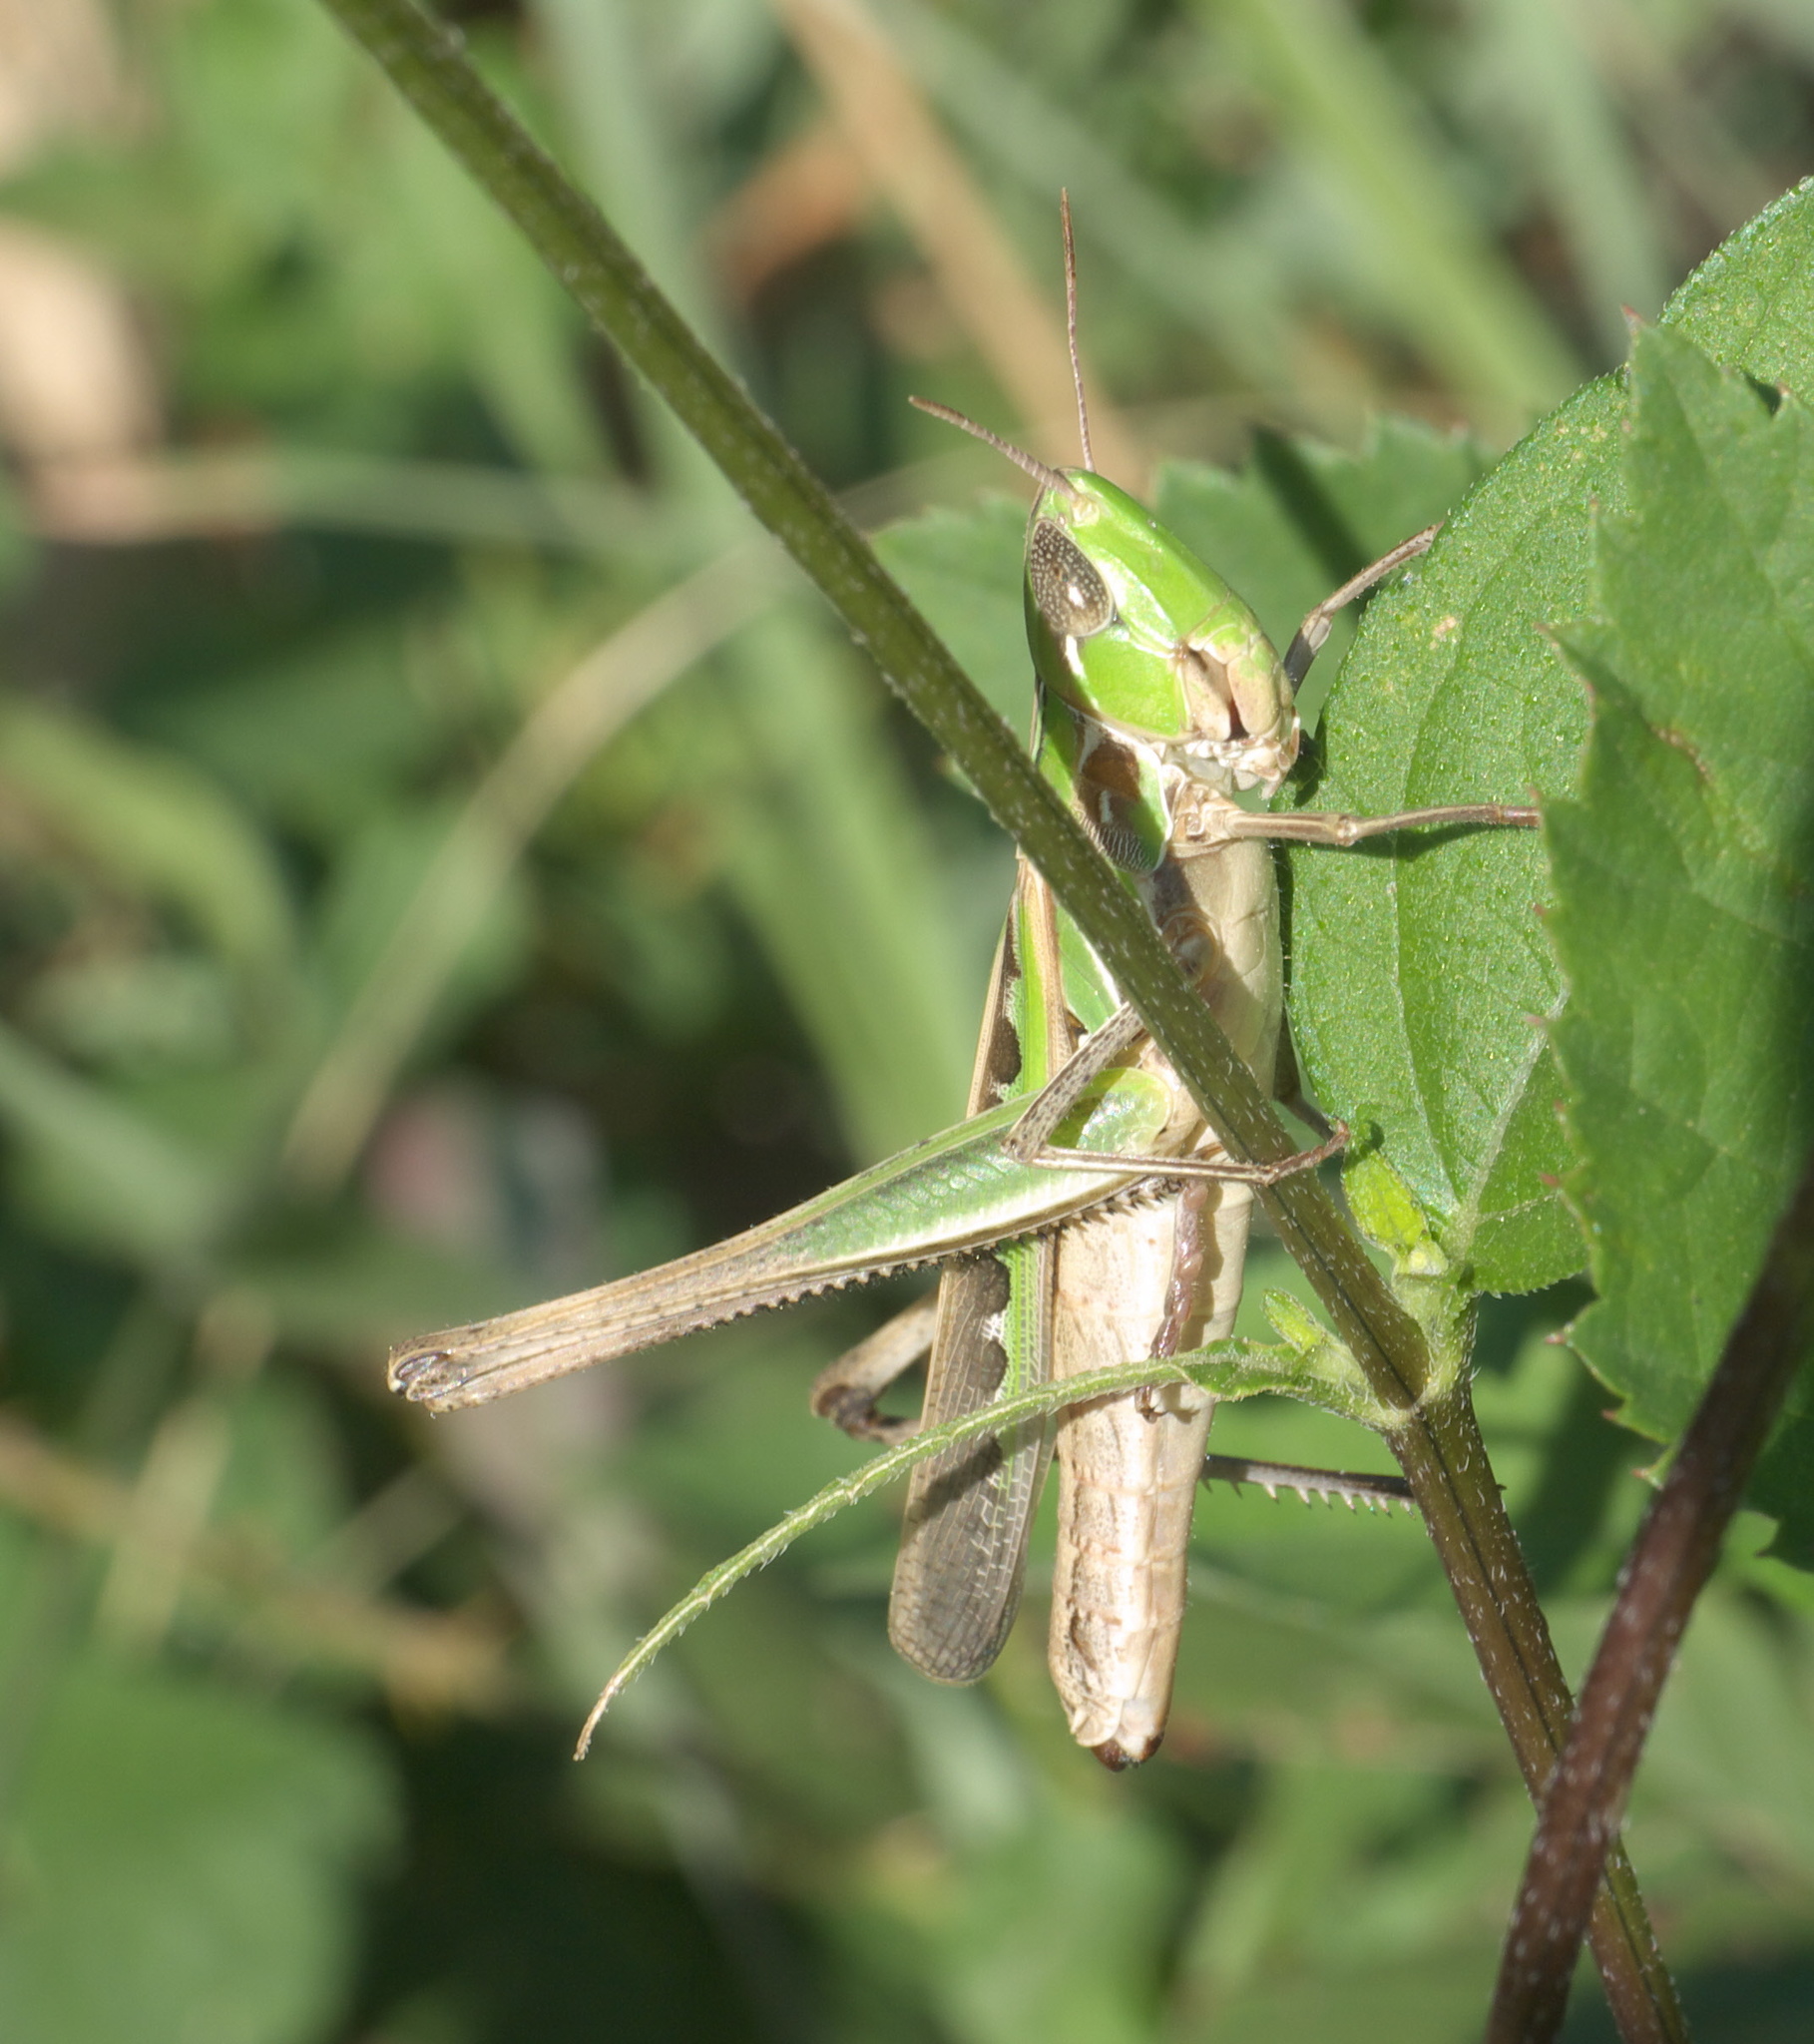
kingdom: Animalia
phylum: Arthropoda
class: Insecta
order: Orthoptera
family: Acrididae
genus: Syrbula
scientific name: Syrbula admirabilis
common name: Handsome grasshopper
